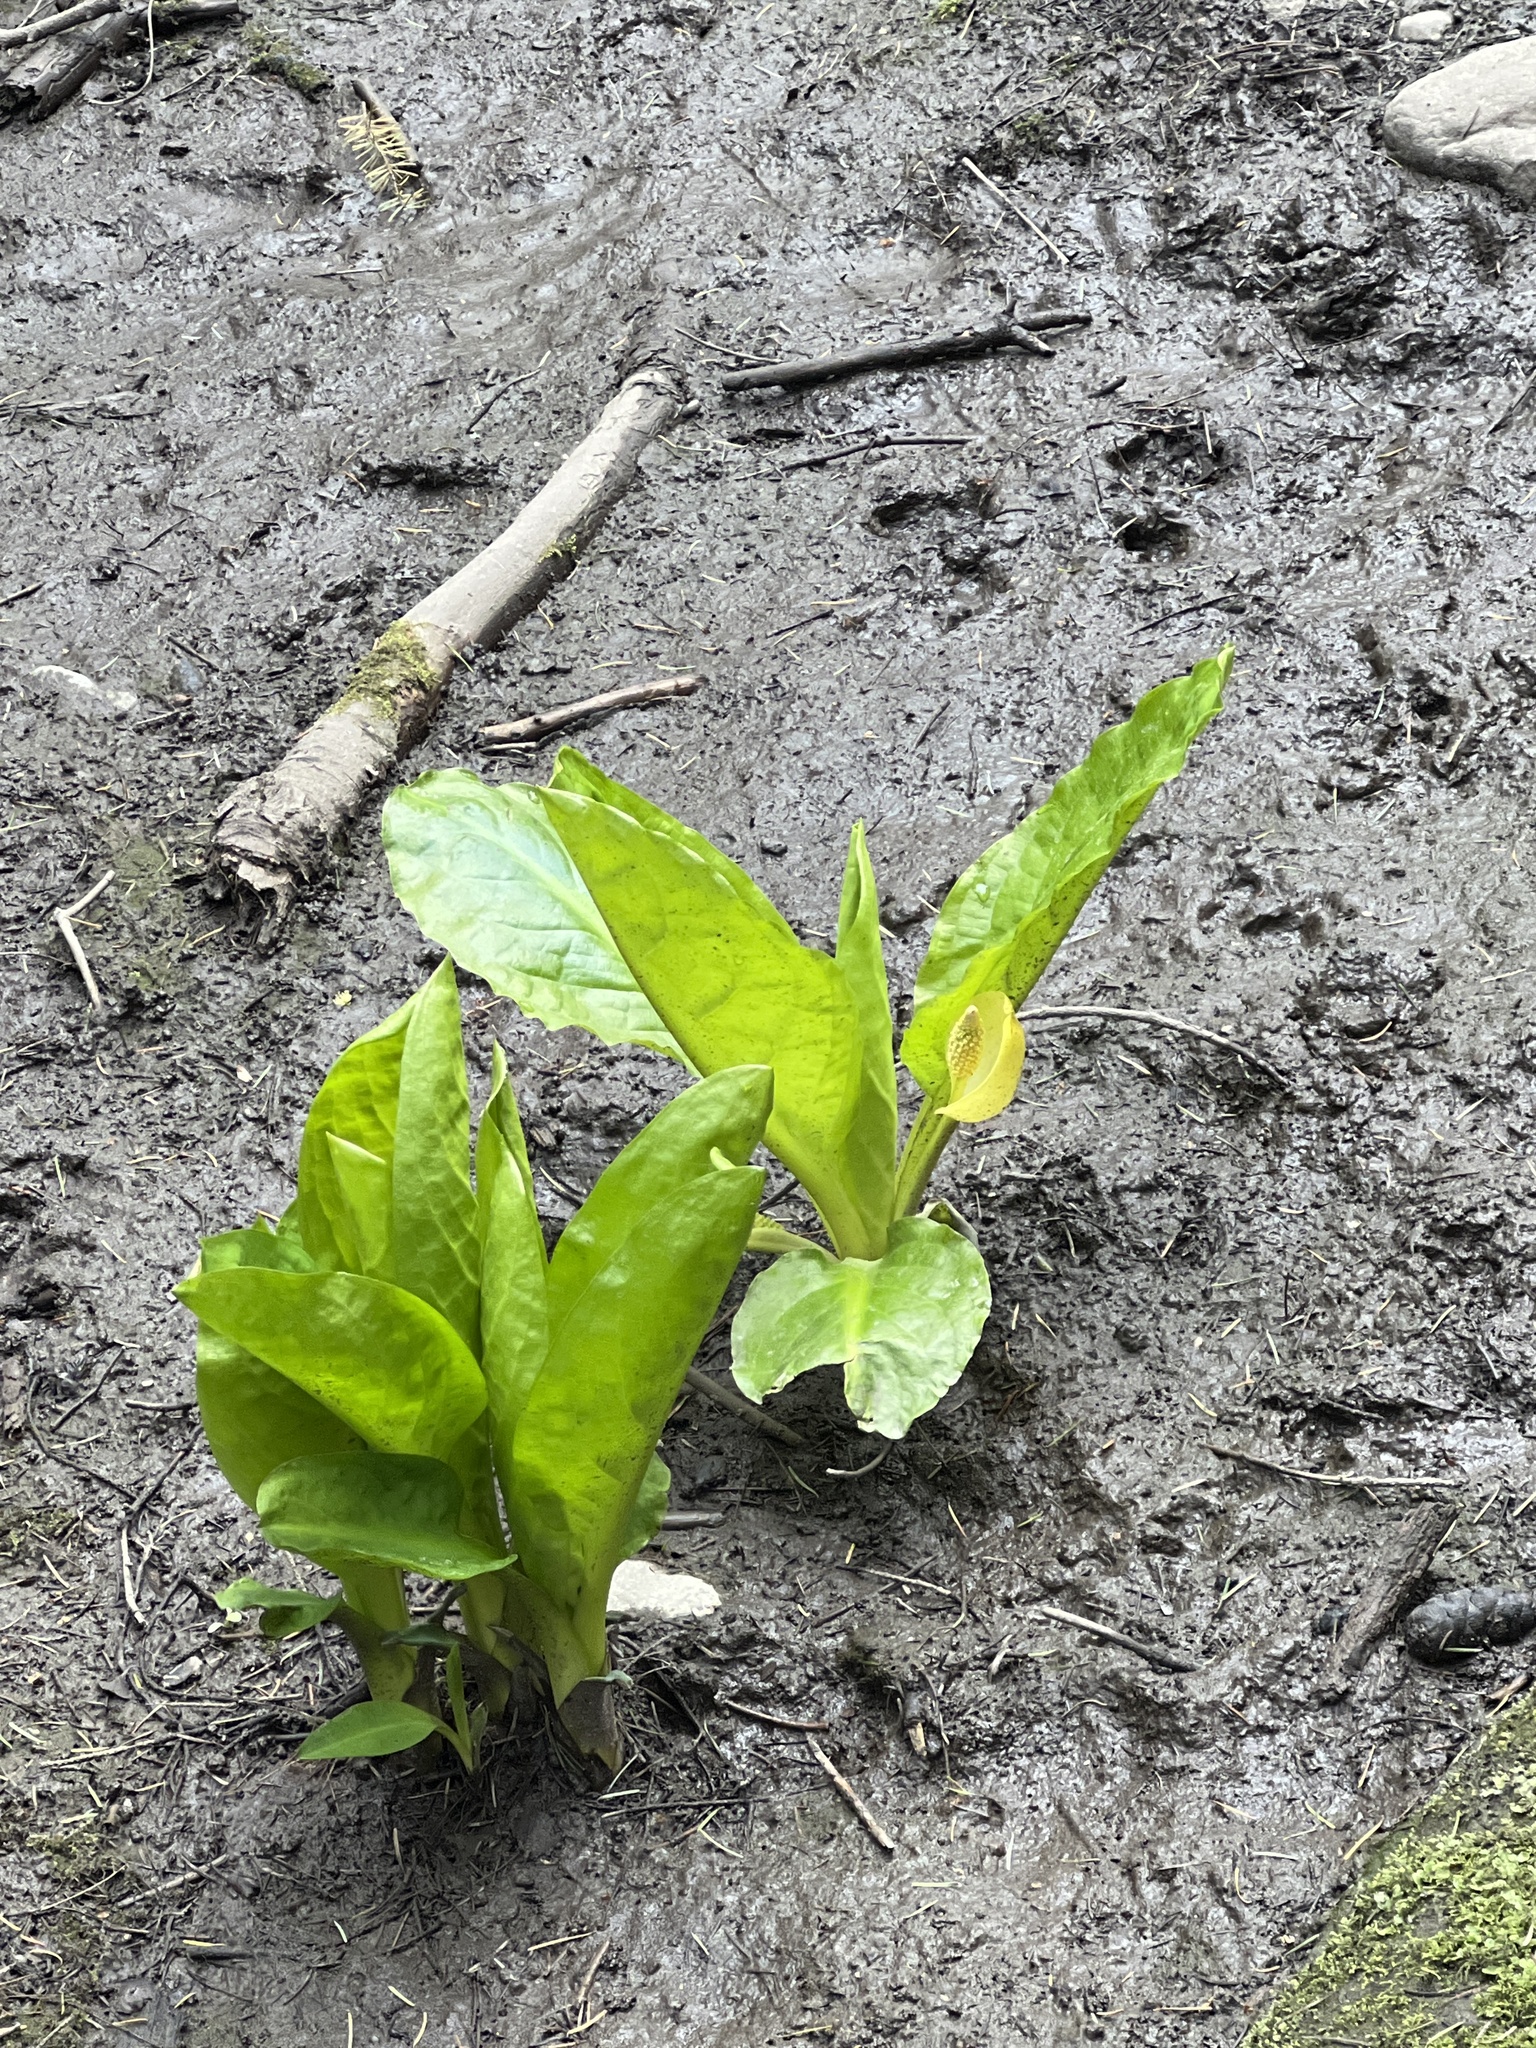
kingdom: Plantae
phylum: Tracheophyta
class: Liliopsida
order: Alismatales
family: Araceae
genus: Lysichiton
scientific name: Lysichiton americanus
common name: American skunk cabbage
